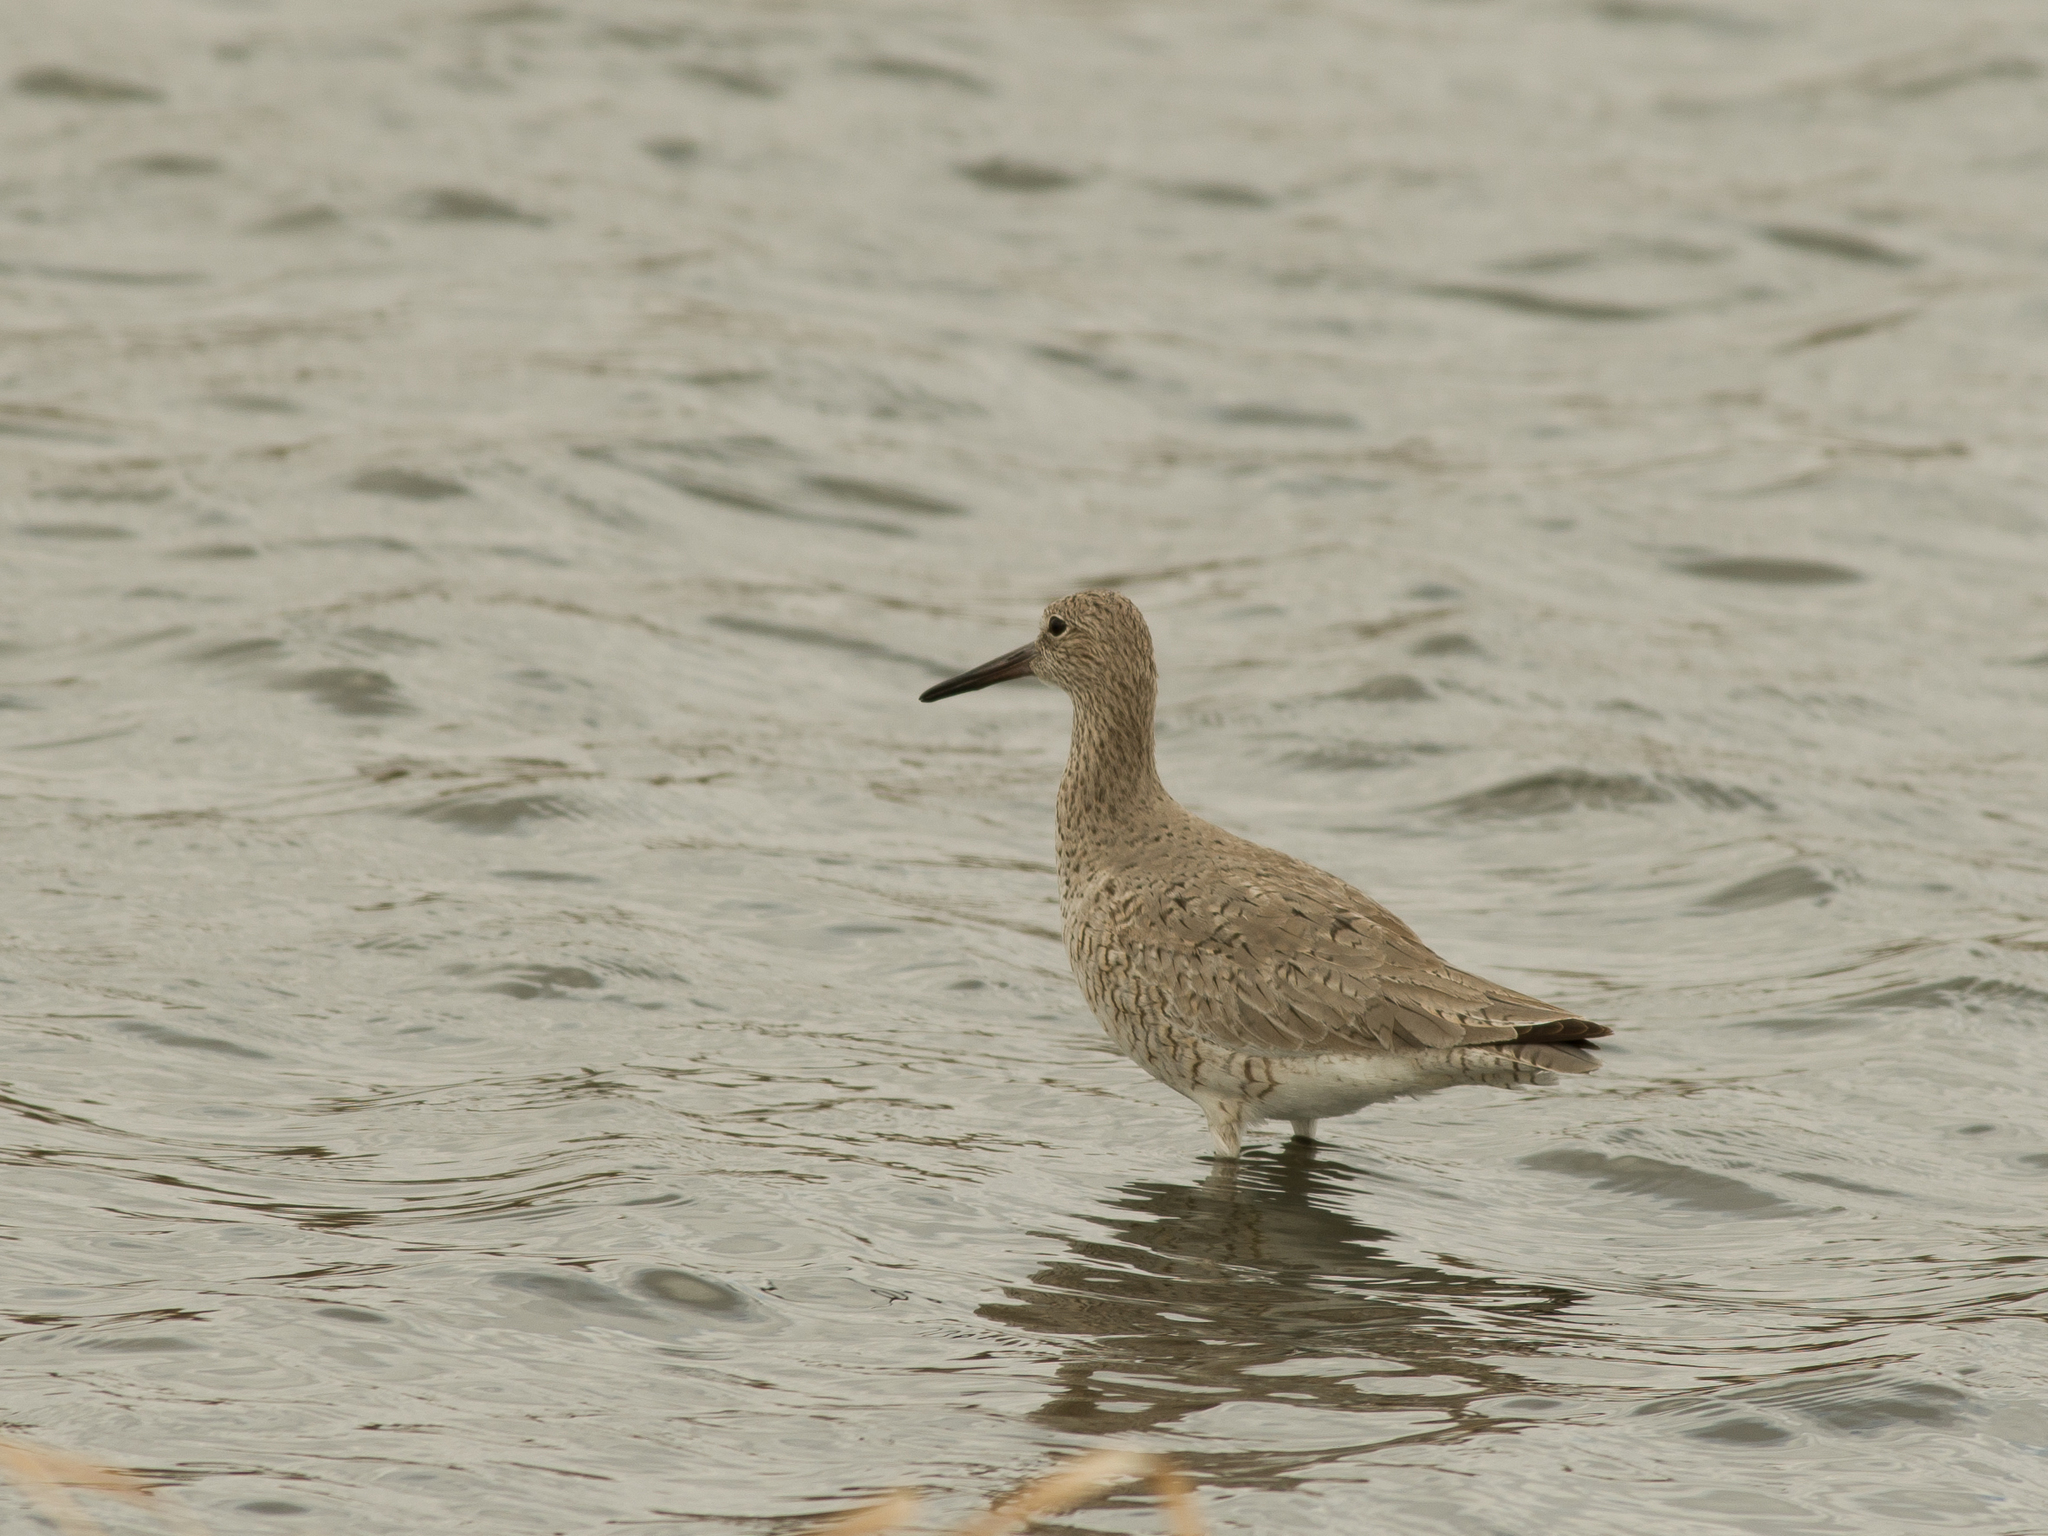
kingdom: Animalia
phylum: Chordata
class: Aves
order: Charadriiformes
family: Scolopacidae
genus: Tringa
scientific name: Tringa semipalmata
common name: Willet
